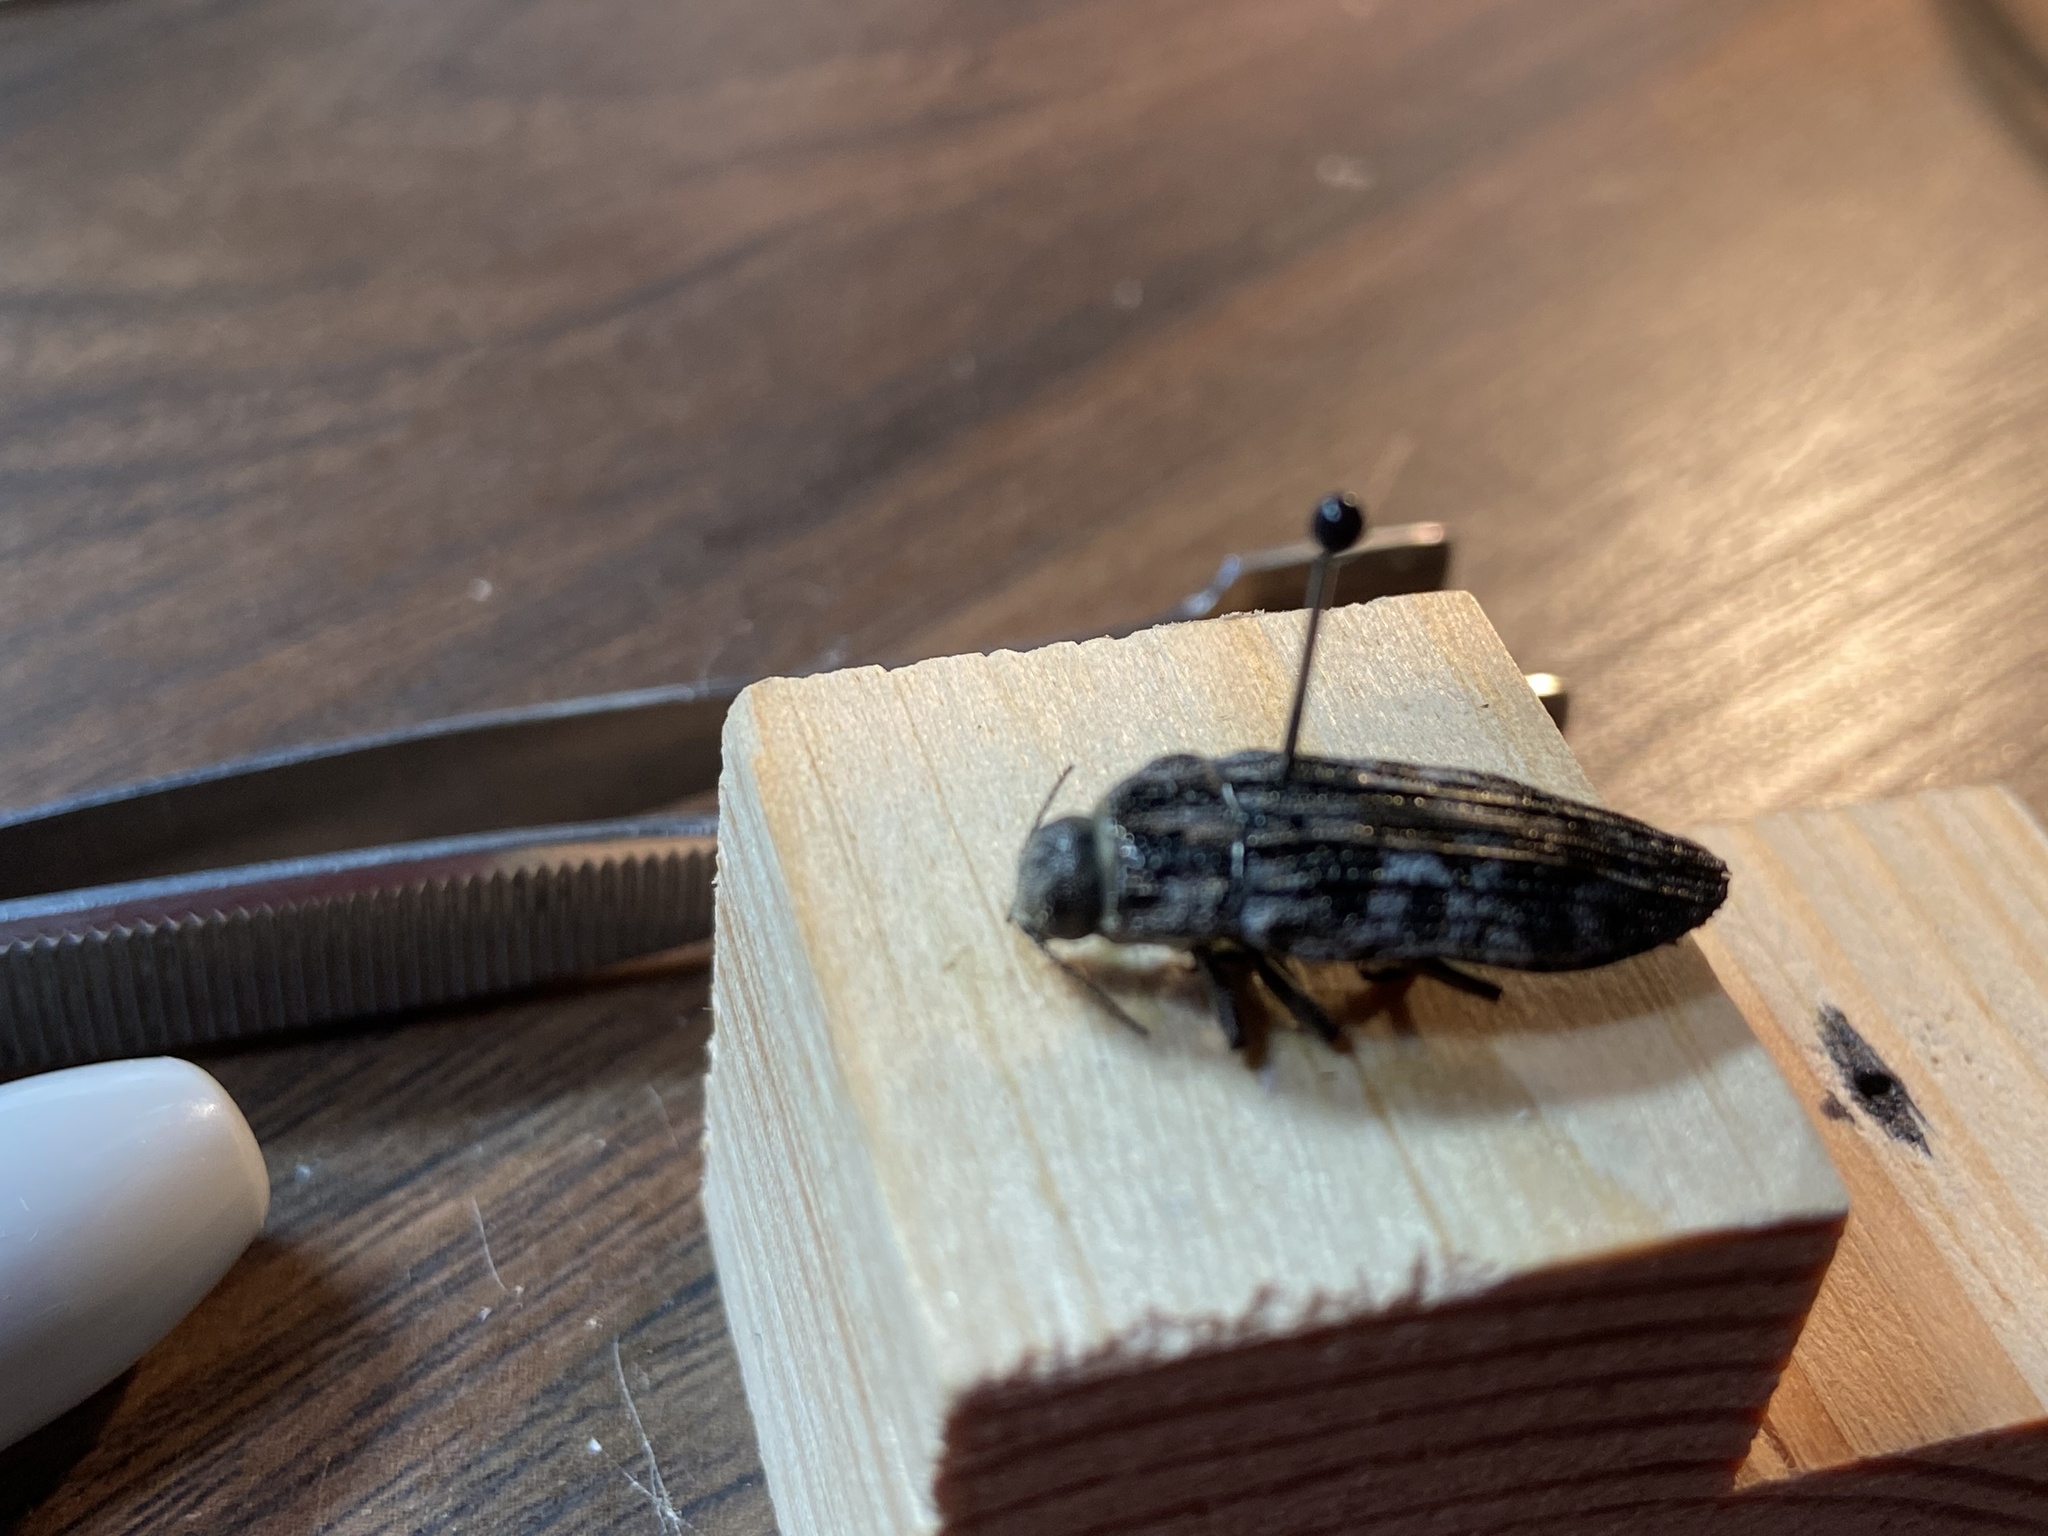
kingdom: Animalia
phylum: Arthropoda
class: Insecta
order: Coleoptera
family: Buprestidae
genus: Polycesta
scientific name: Polycesta elata
